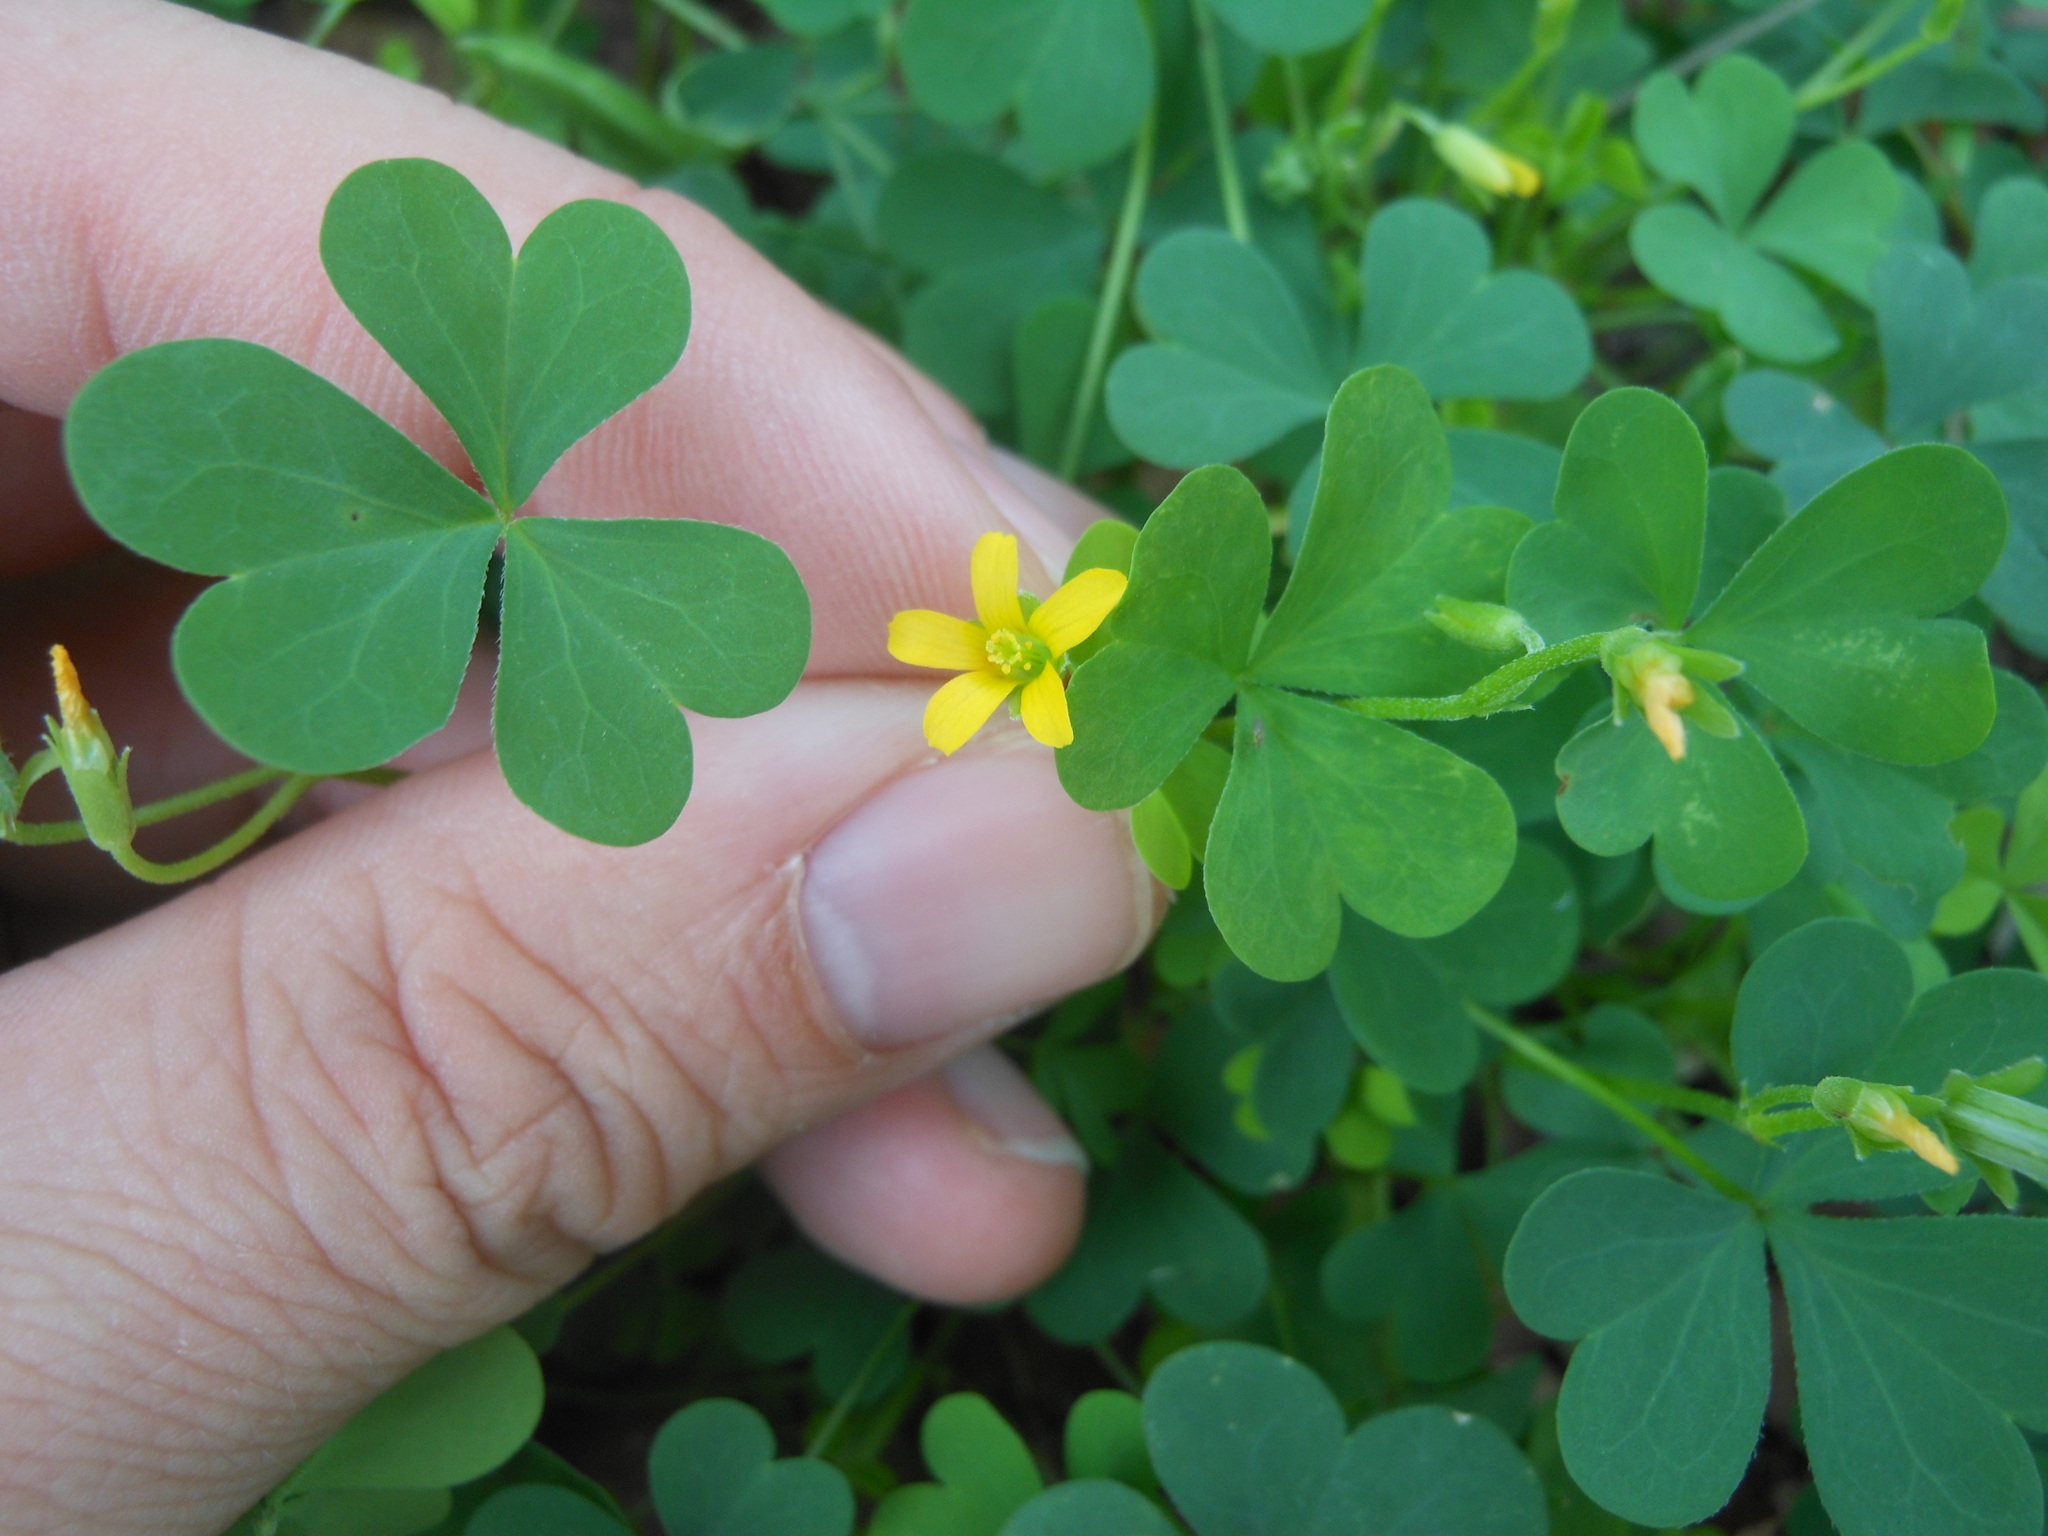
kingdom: Plantae
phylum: Tracheophyta
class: Magnoliopsida
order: Oxalidales
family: Oxalidaceae
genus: Oxalis
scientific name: Oxalis
